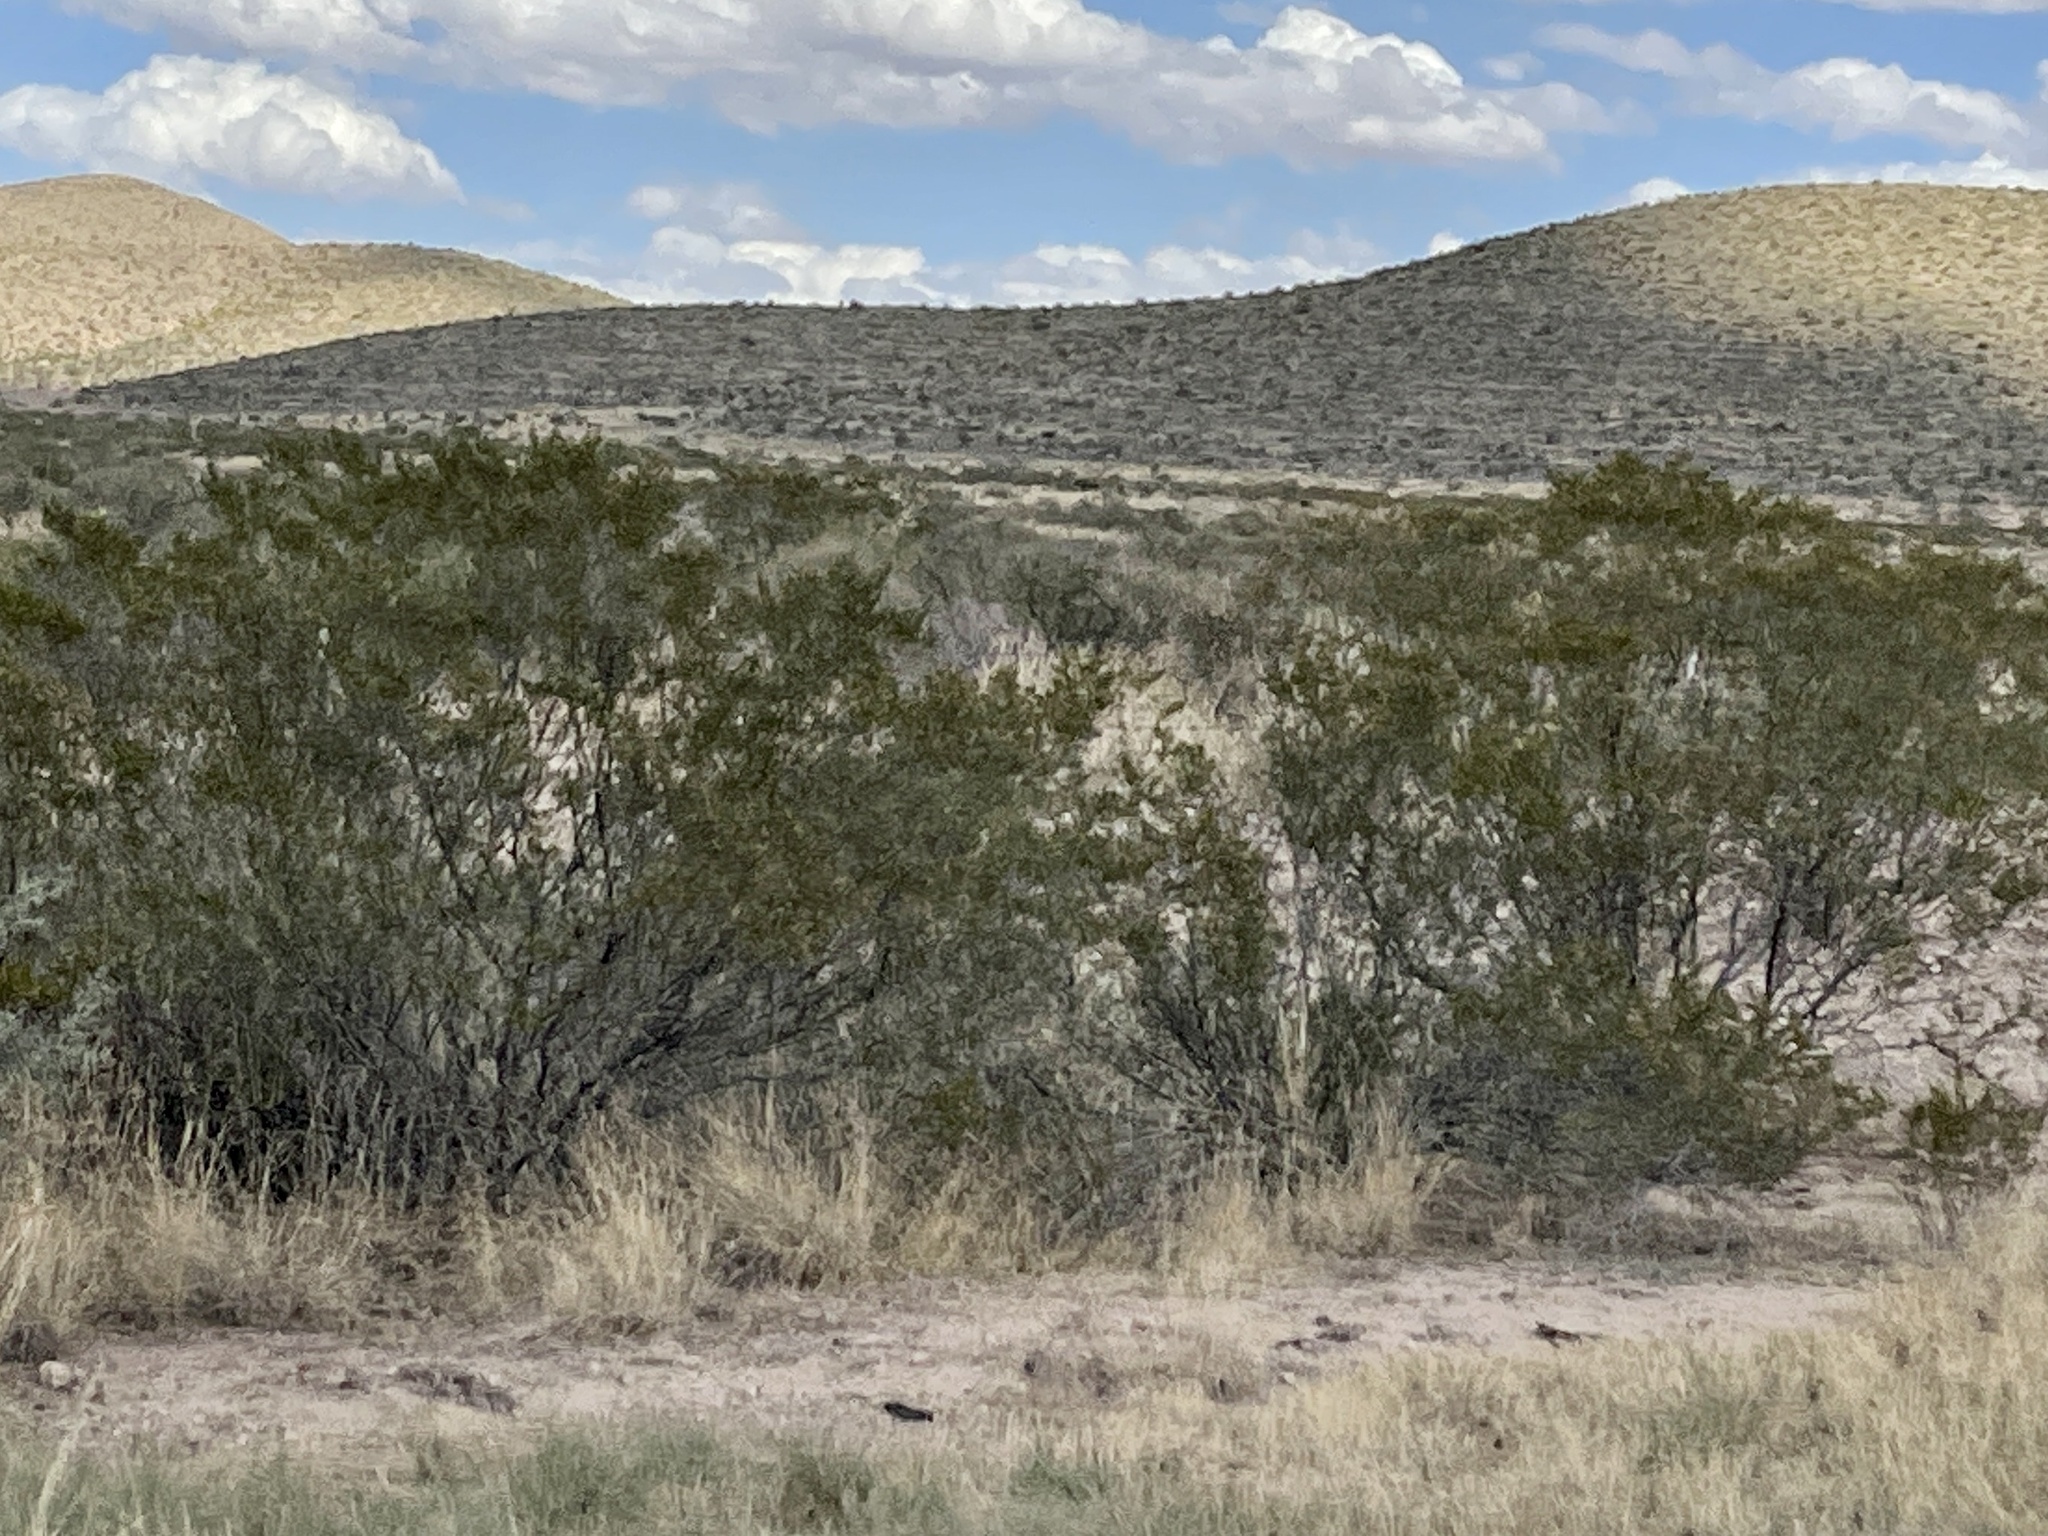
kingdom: Plantae
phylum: Tracheophyta
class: Magnoliopsida
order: Zygophyllales
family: Zygophyllaceae
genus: Larrea
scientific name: Larrea tridentata
